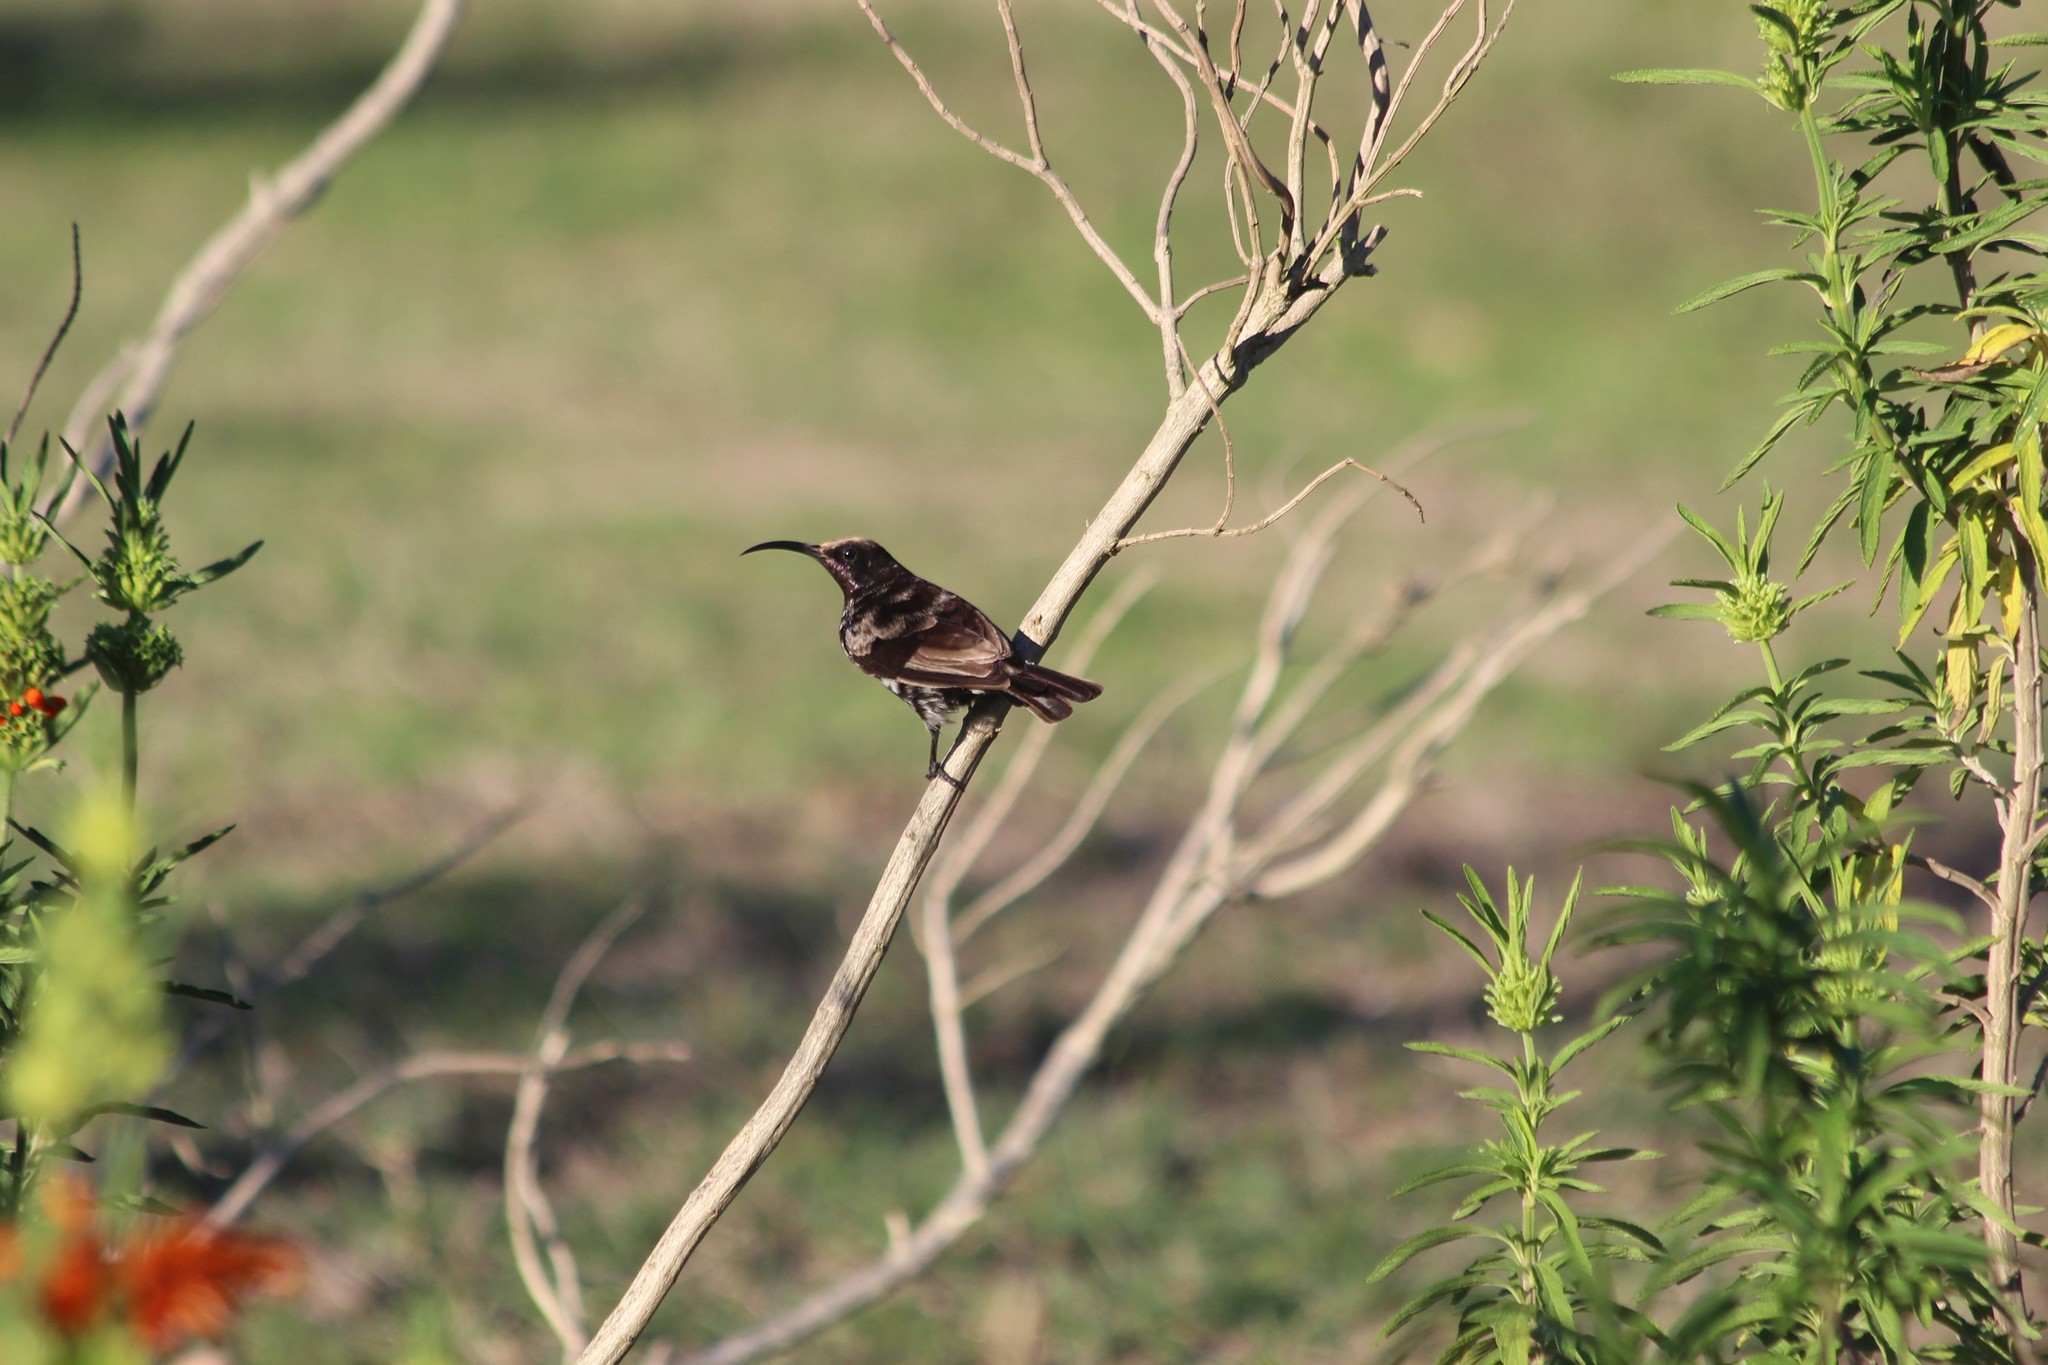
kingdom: Animalia
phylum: Chordata
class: Aves
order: Passeriformes
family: Nectariniidae
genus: Chalcomitra
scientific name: Chalcomitra amethystina
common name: Amethyst sunbird
